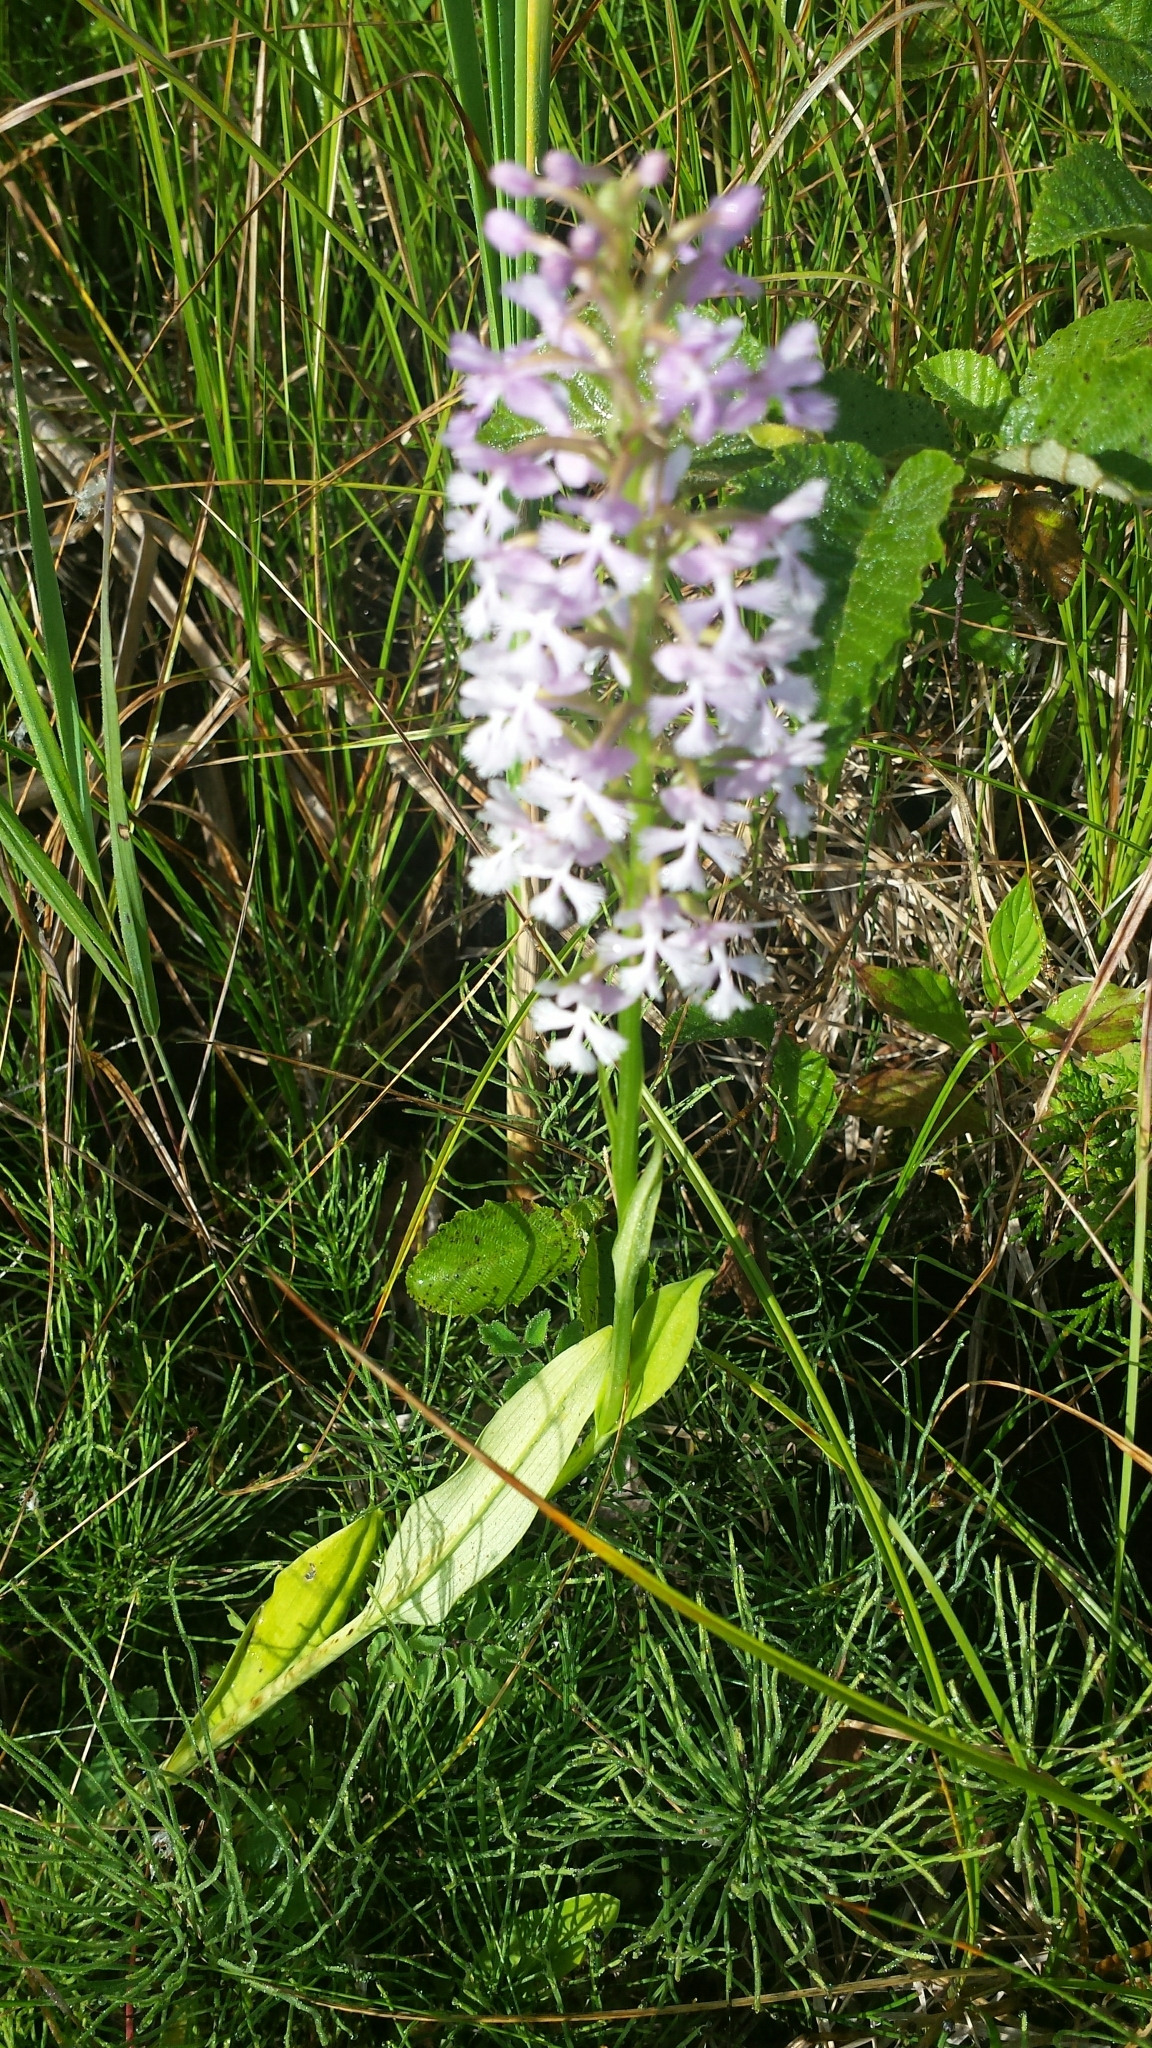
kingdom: Plantae
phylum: Tracheophyta
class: Liliopsida
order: Asparagales
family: Orchidaceae
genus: Platanthera
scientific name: Platanthera psycodes
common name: Lesser purple fringed orchid
